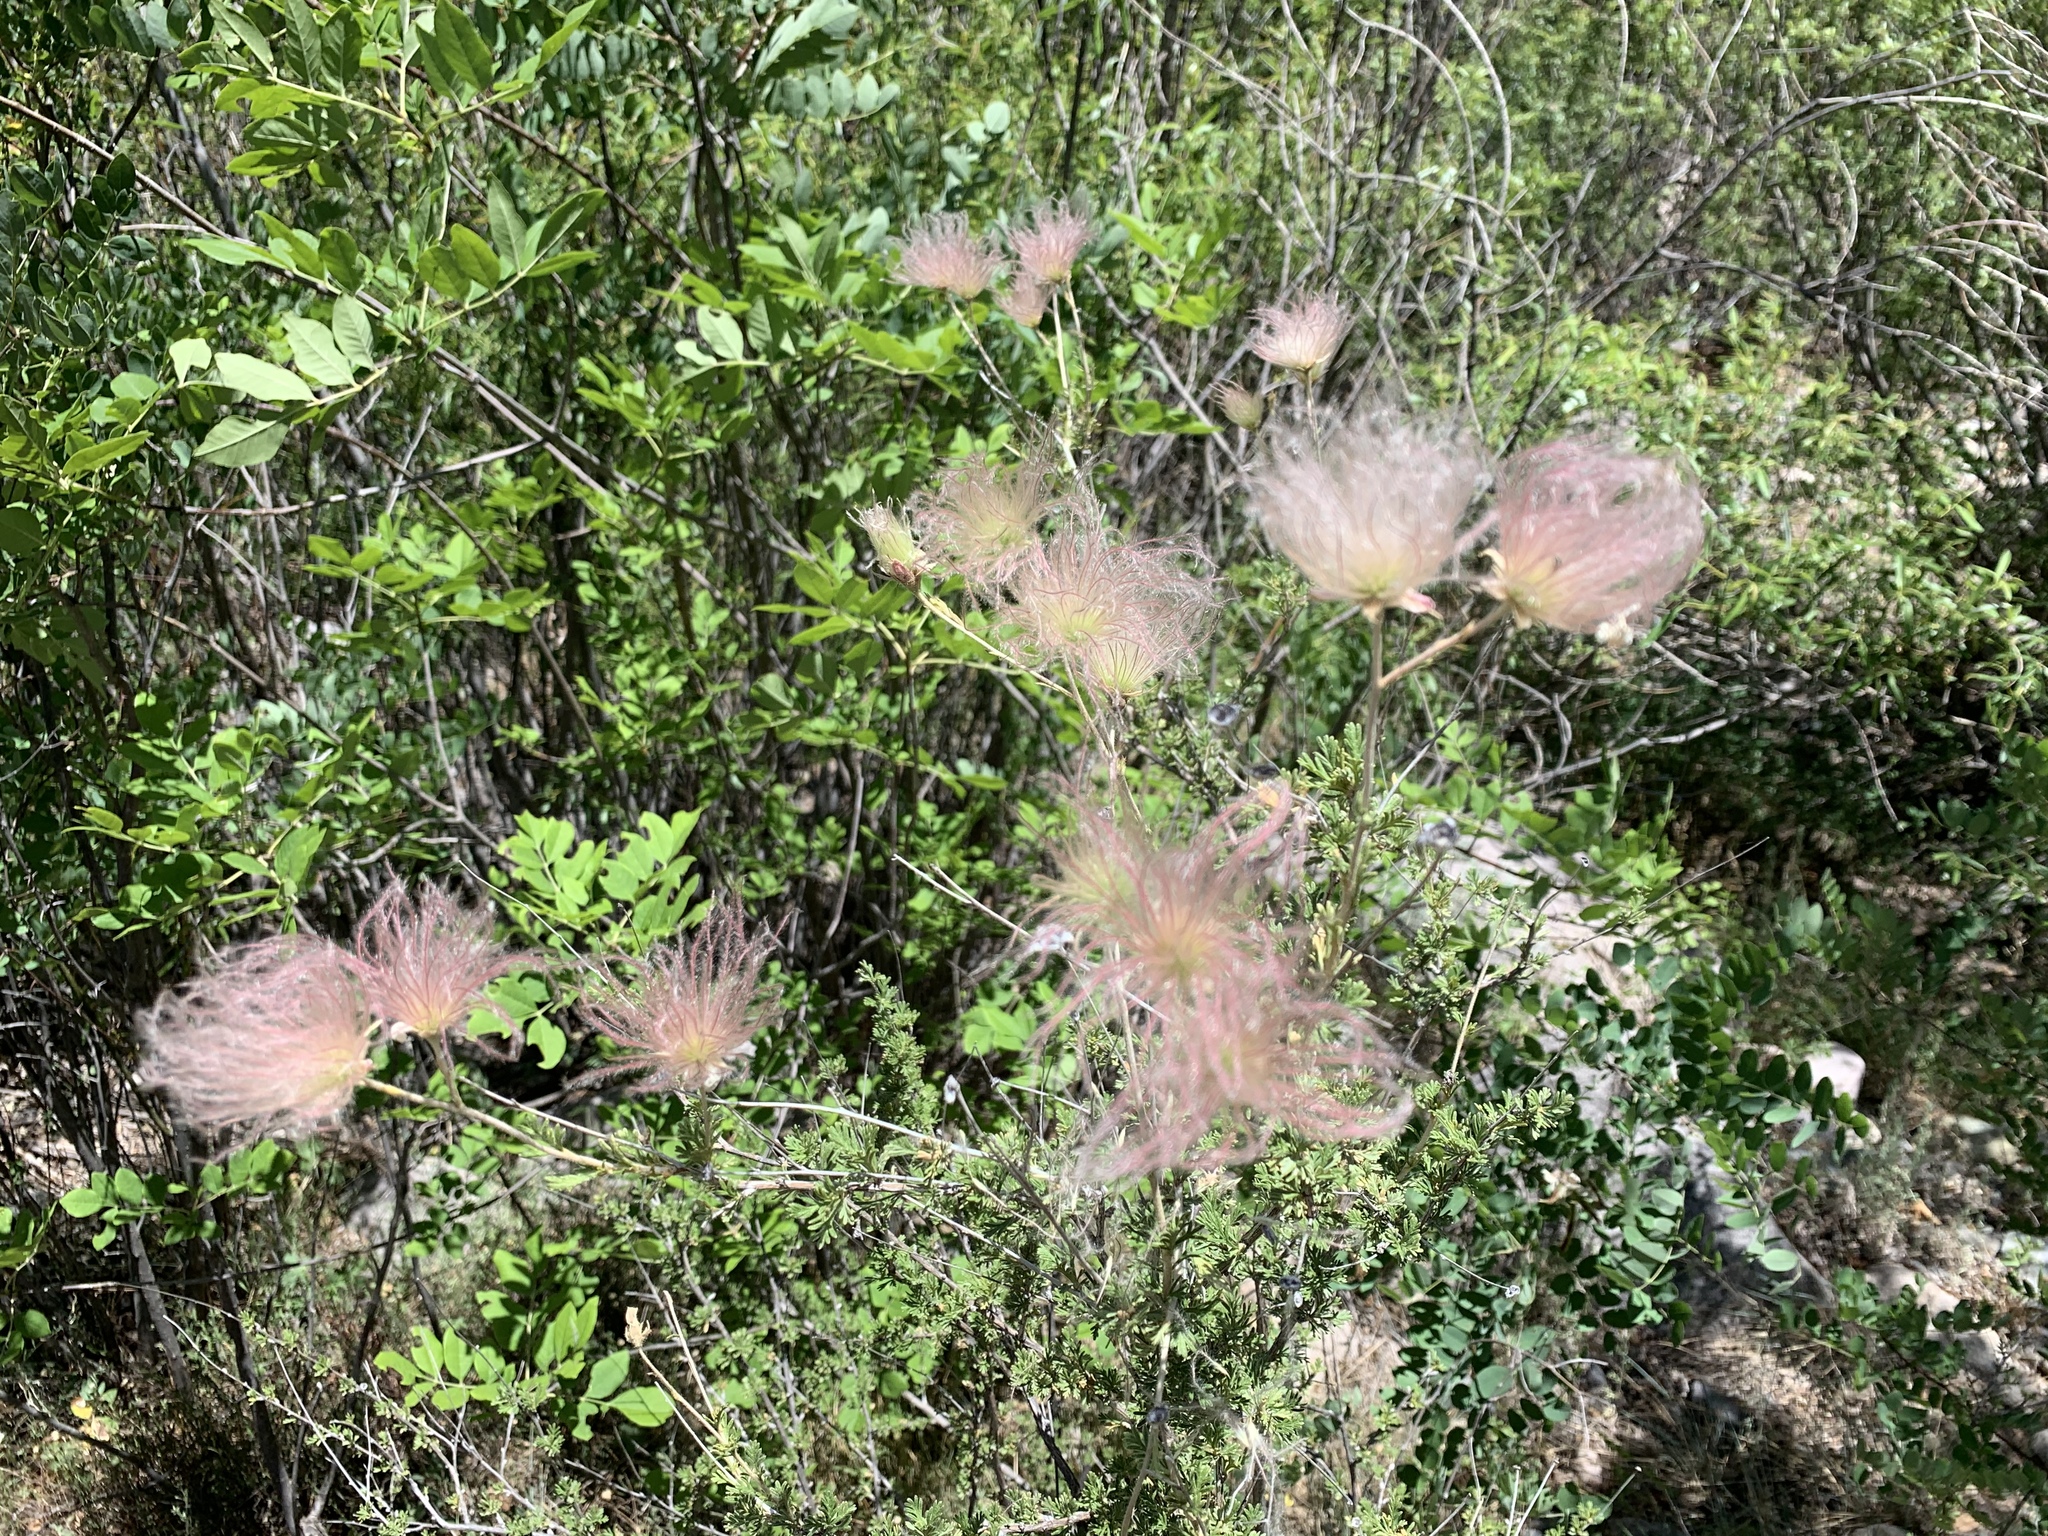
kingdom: Plantae
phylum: Tracheophyta
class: Magnoliopsida
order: Rosales
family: Rosaceae
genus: Fallugia
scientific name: Fallugia paradoxa
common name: Apache-plume
